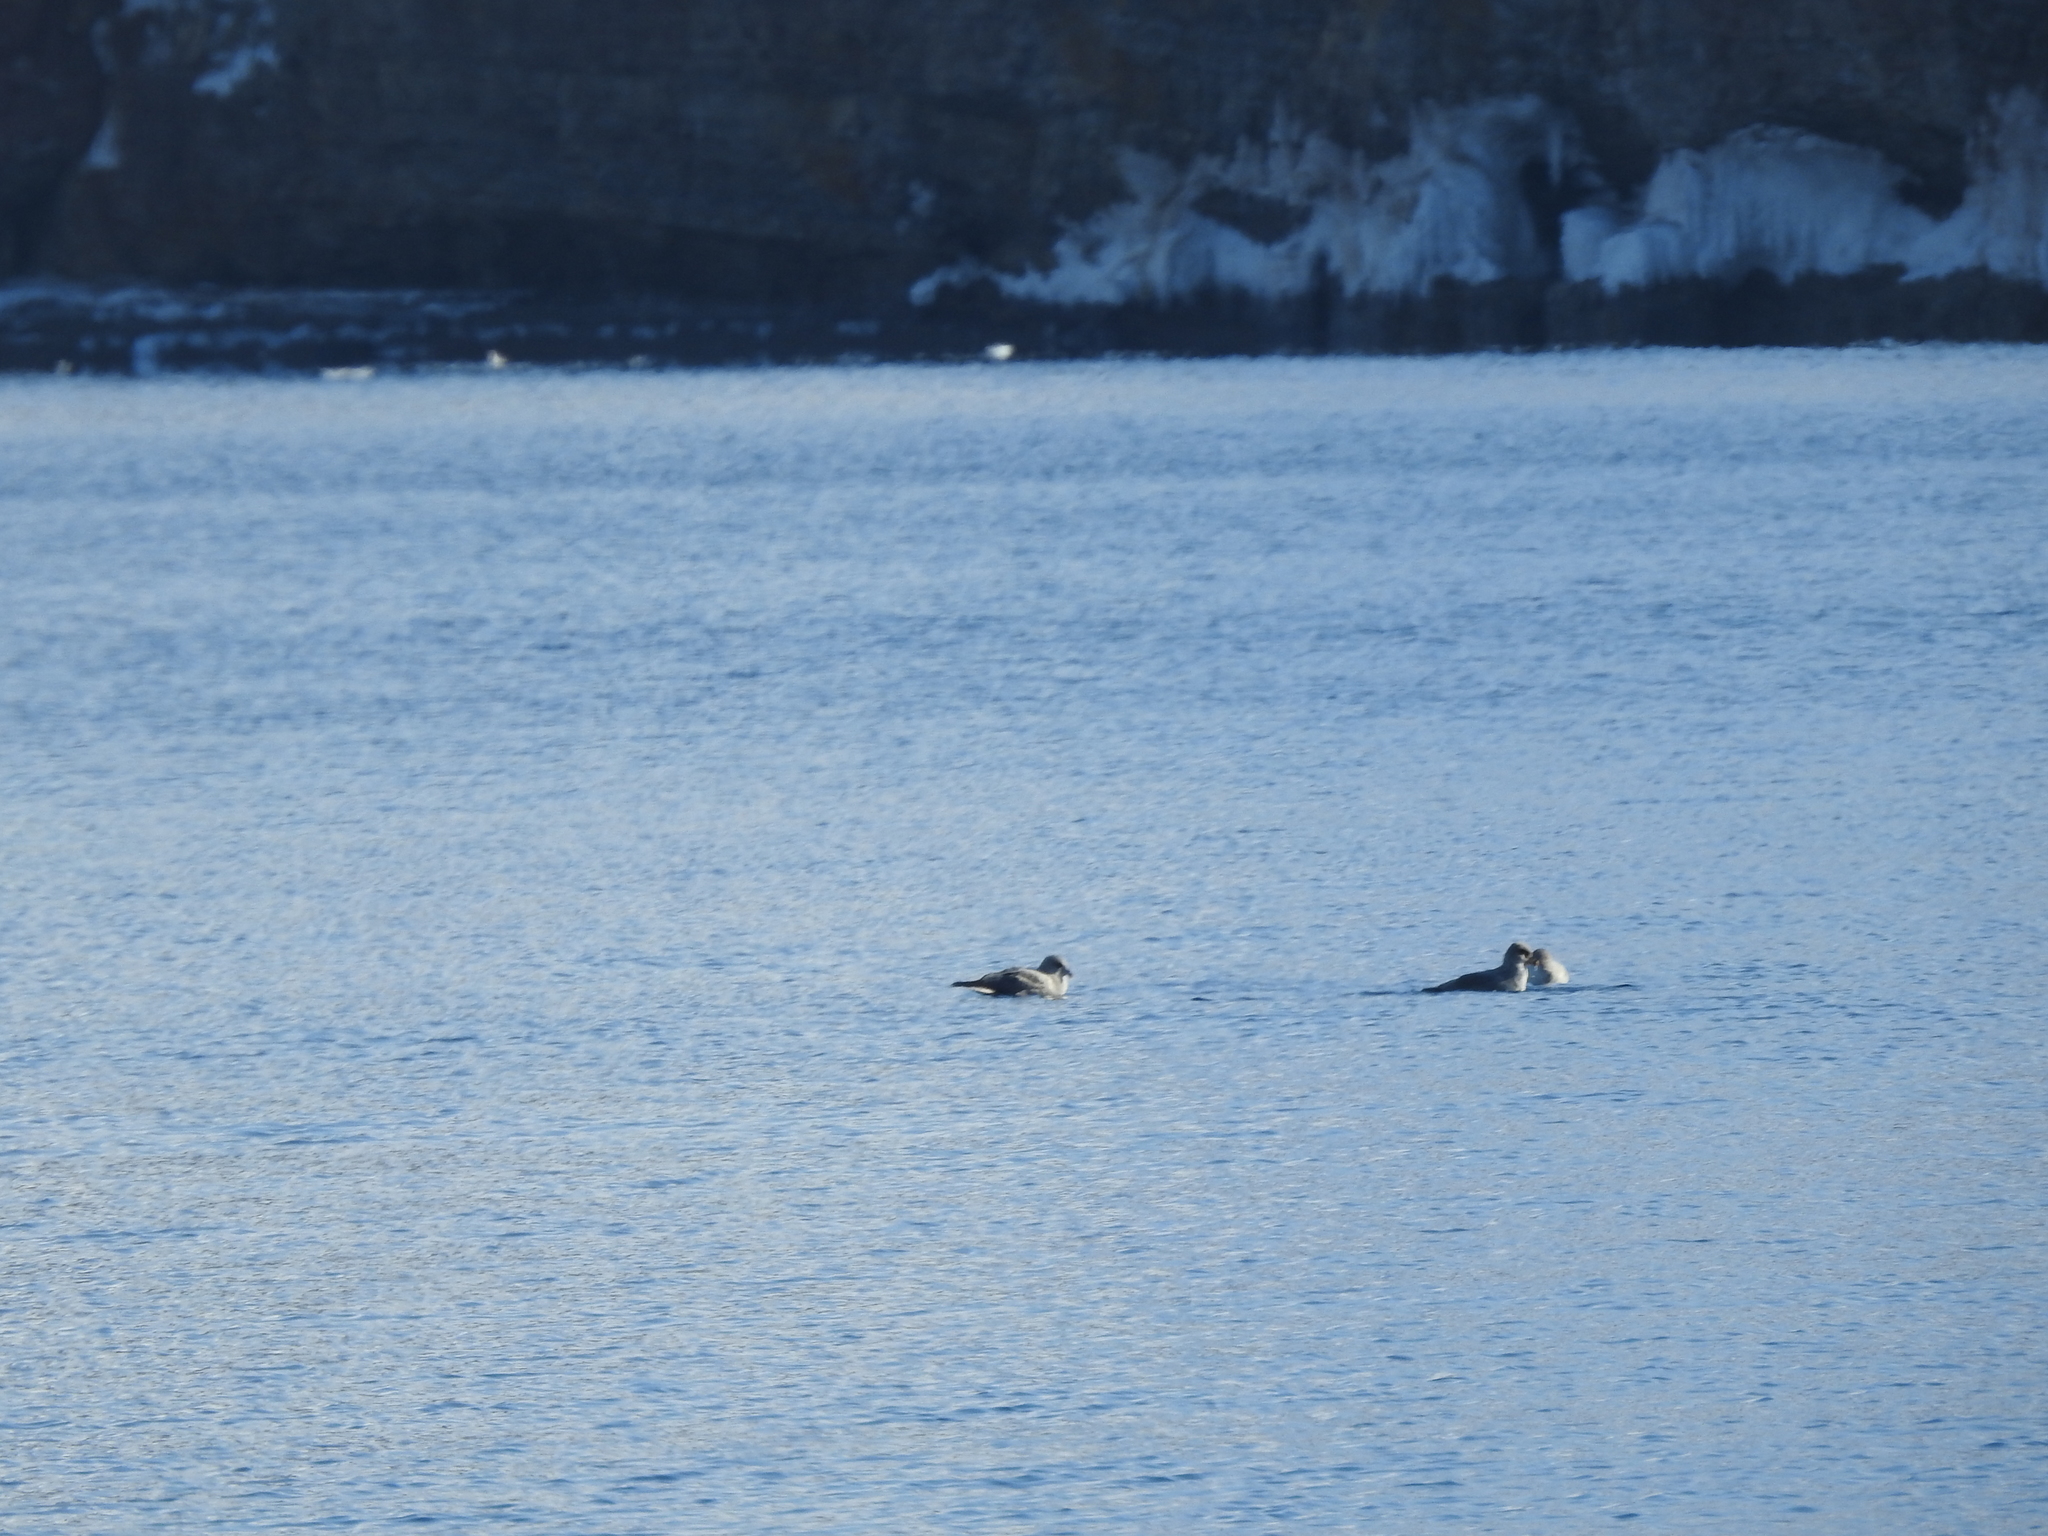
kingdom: Animalia
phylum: Chordata
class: Aves
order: Procellariiformes
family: Procellariidae
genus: Fulmarus
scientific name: Fulmarus glacialis
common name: Northern fulmar
